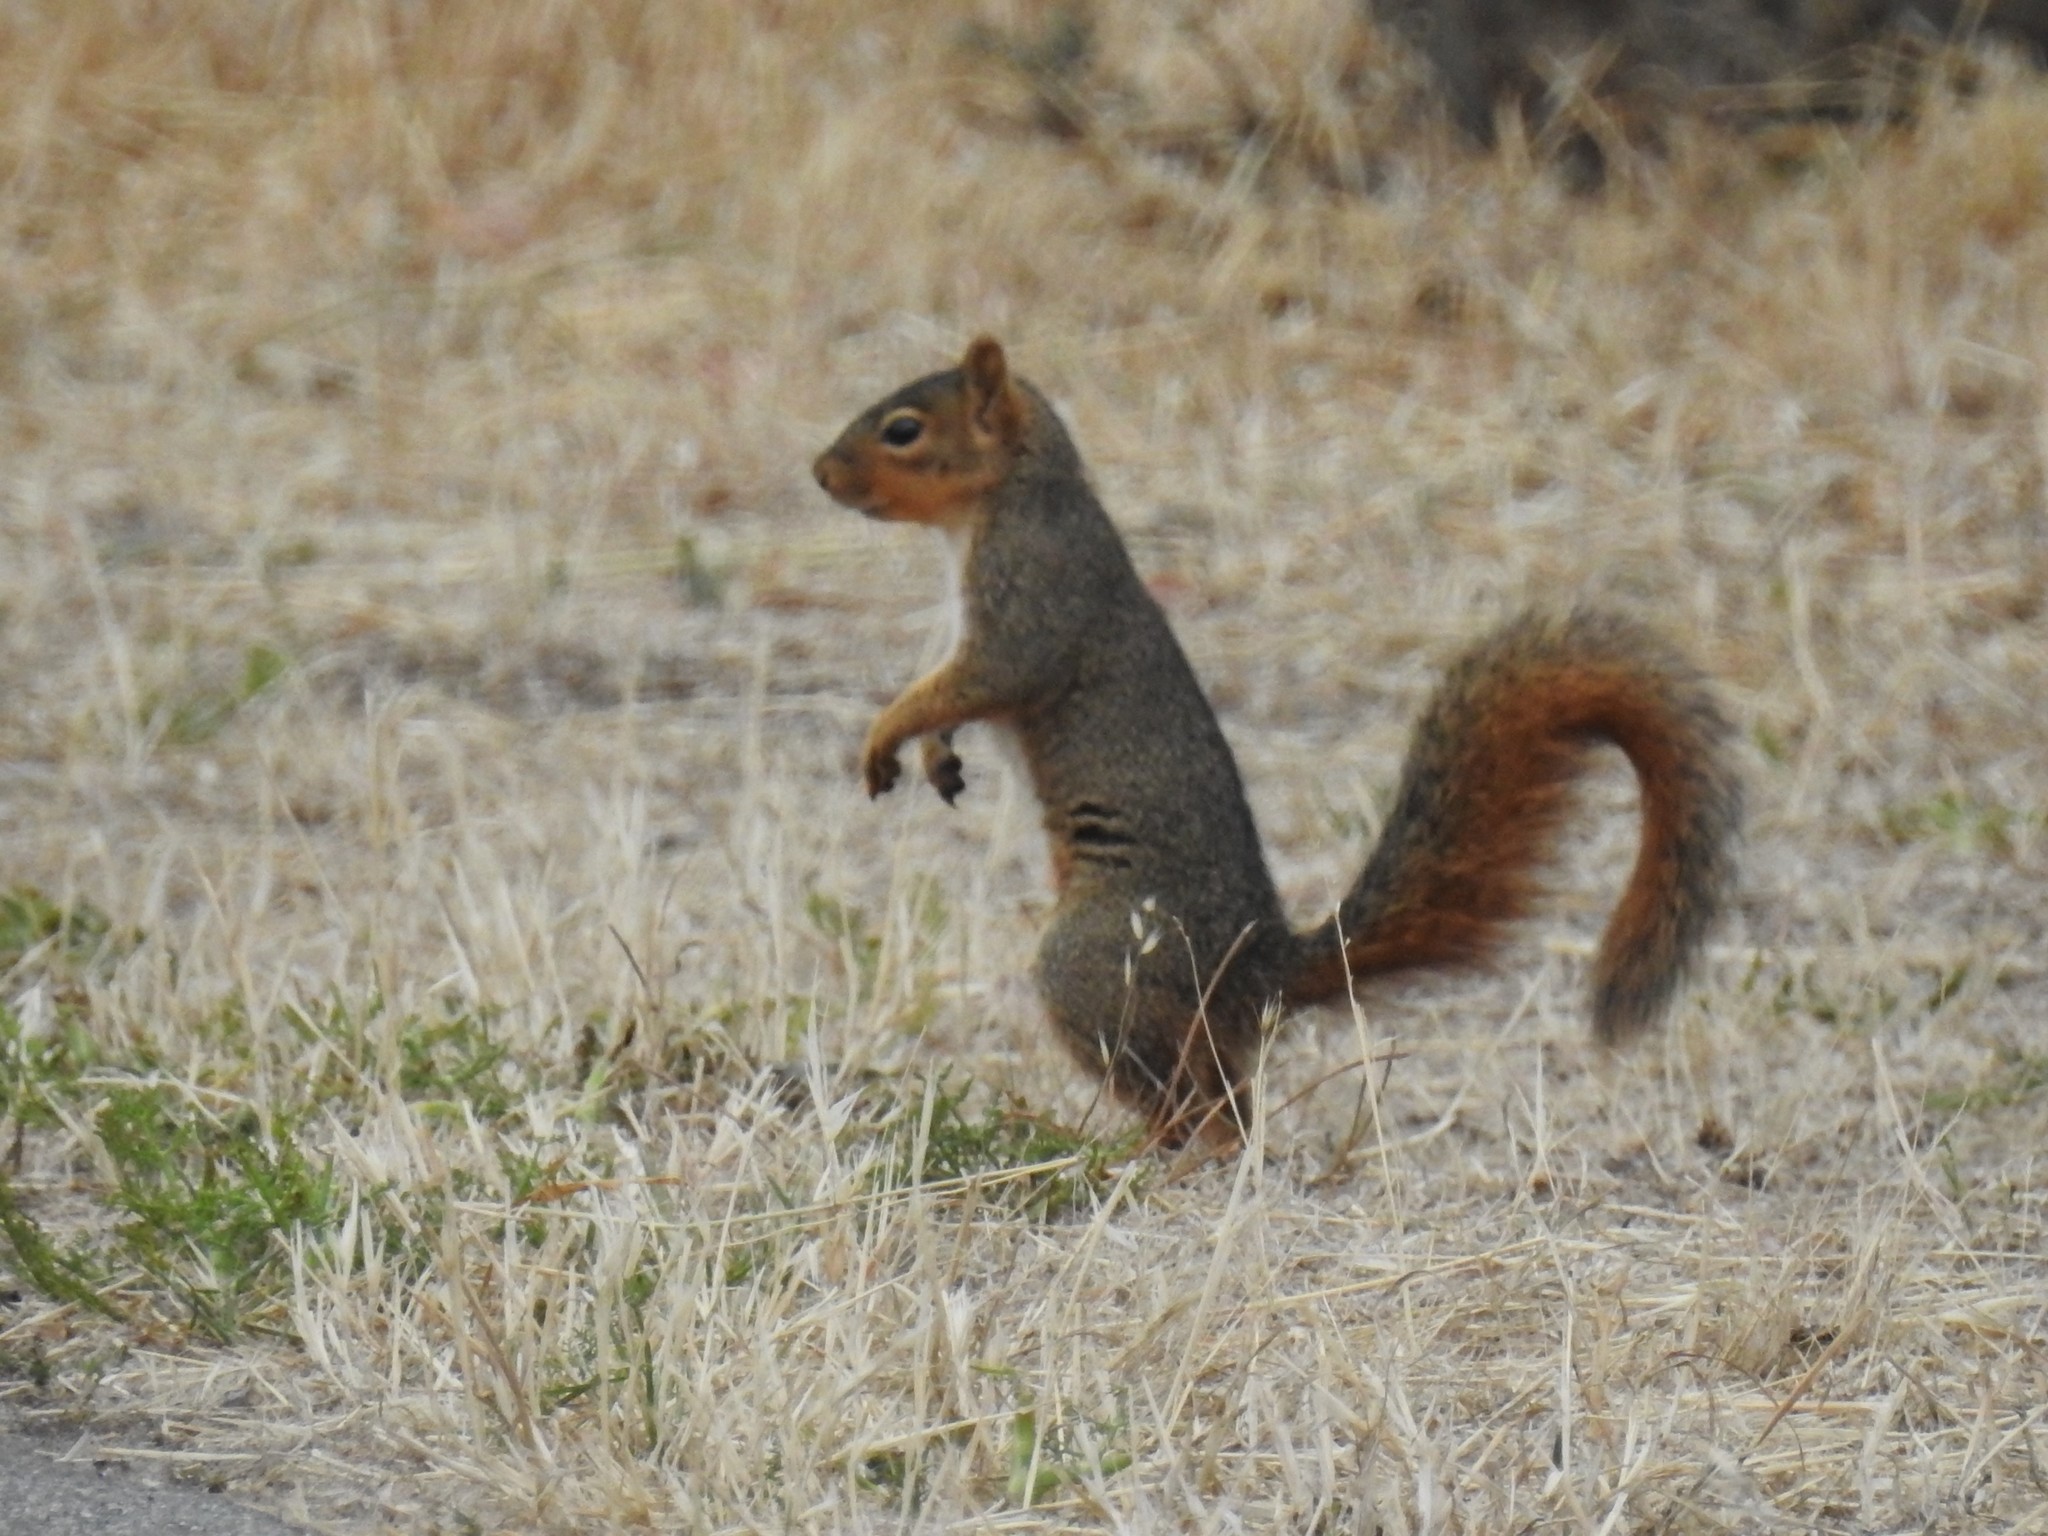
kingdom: Animalia
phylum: Chordata
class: Mammalia
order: Rodentia
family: Sciuridae
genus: Sciurus
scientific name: Sciurus niger
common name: Fox squirrel
